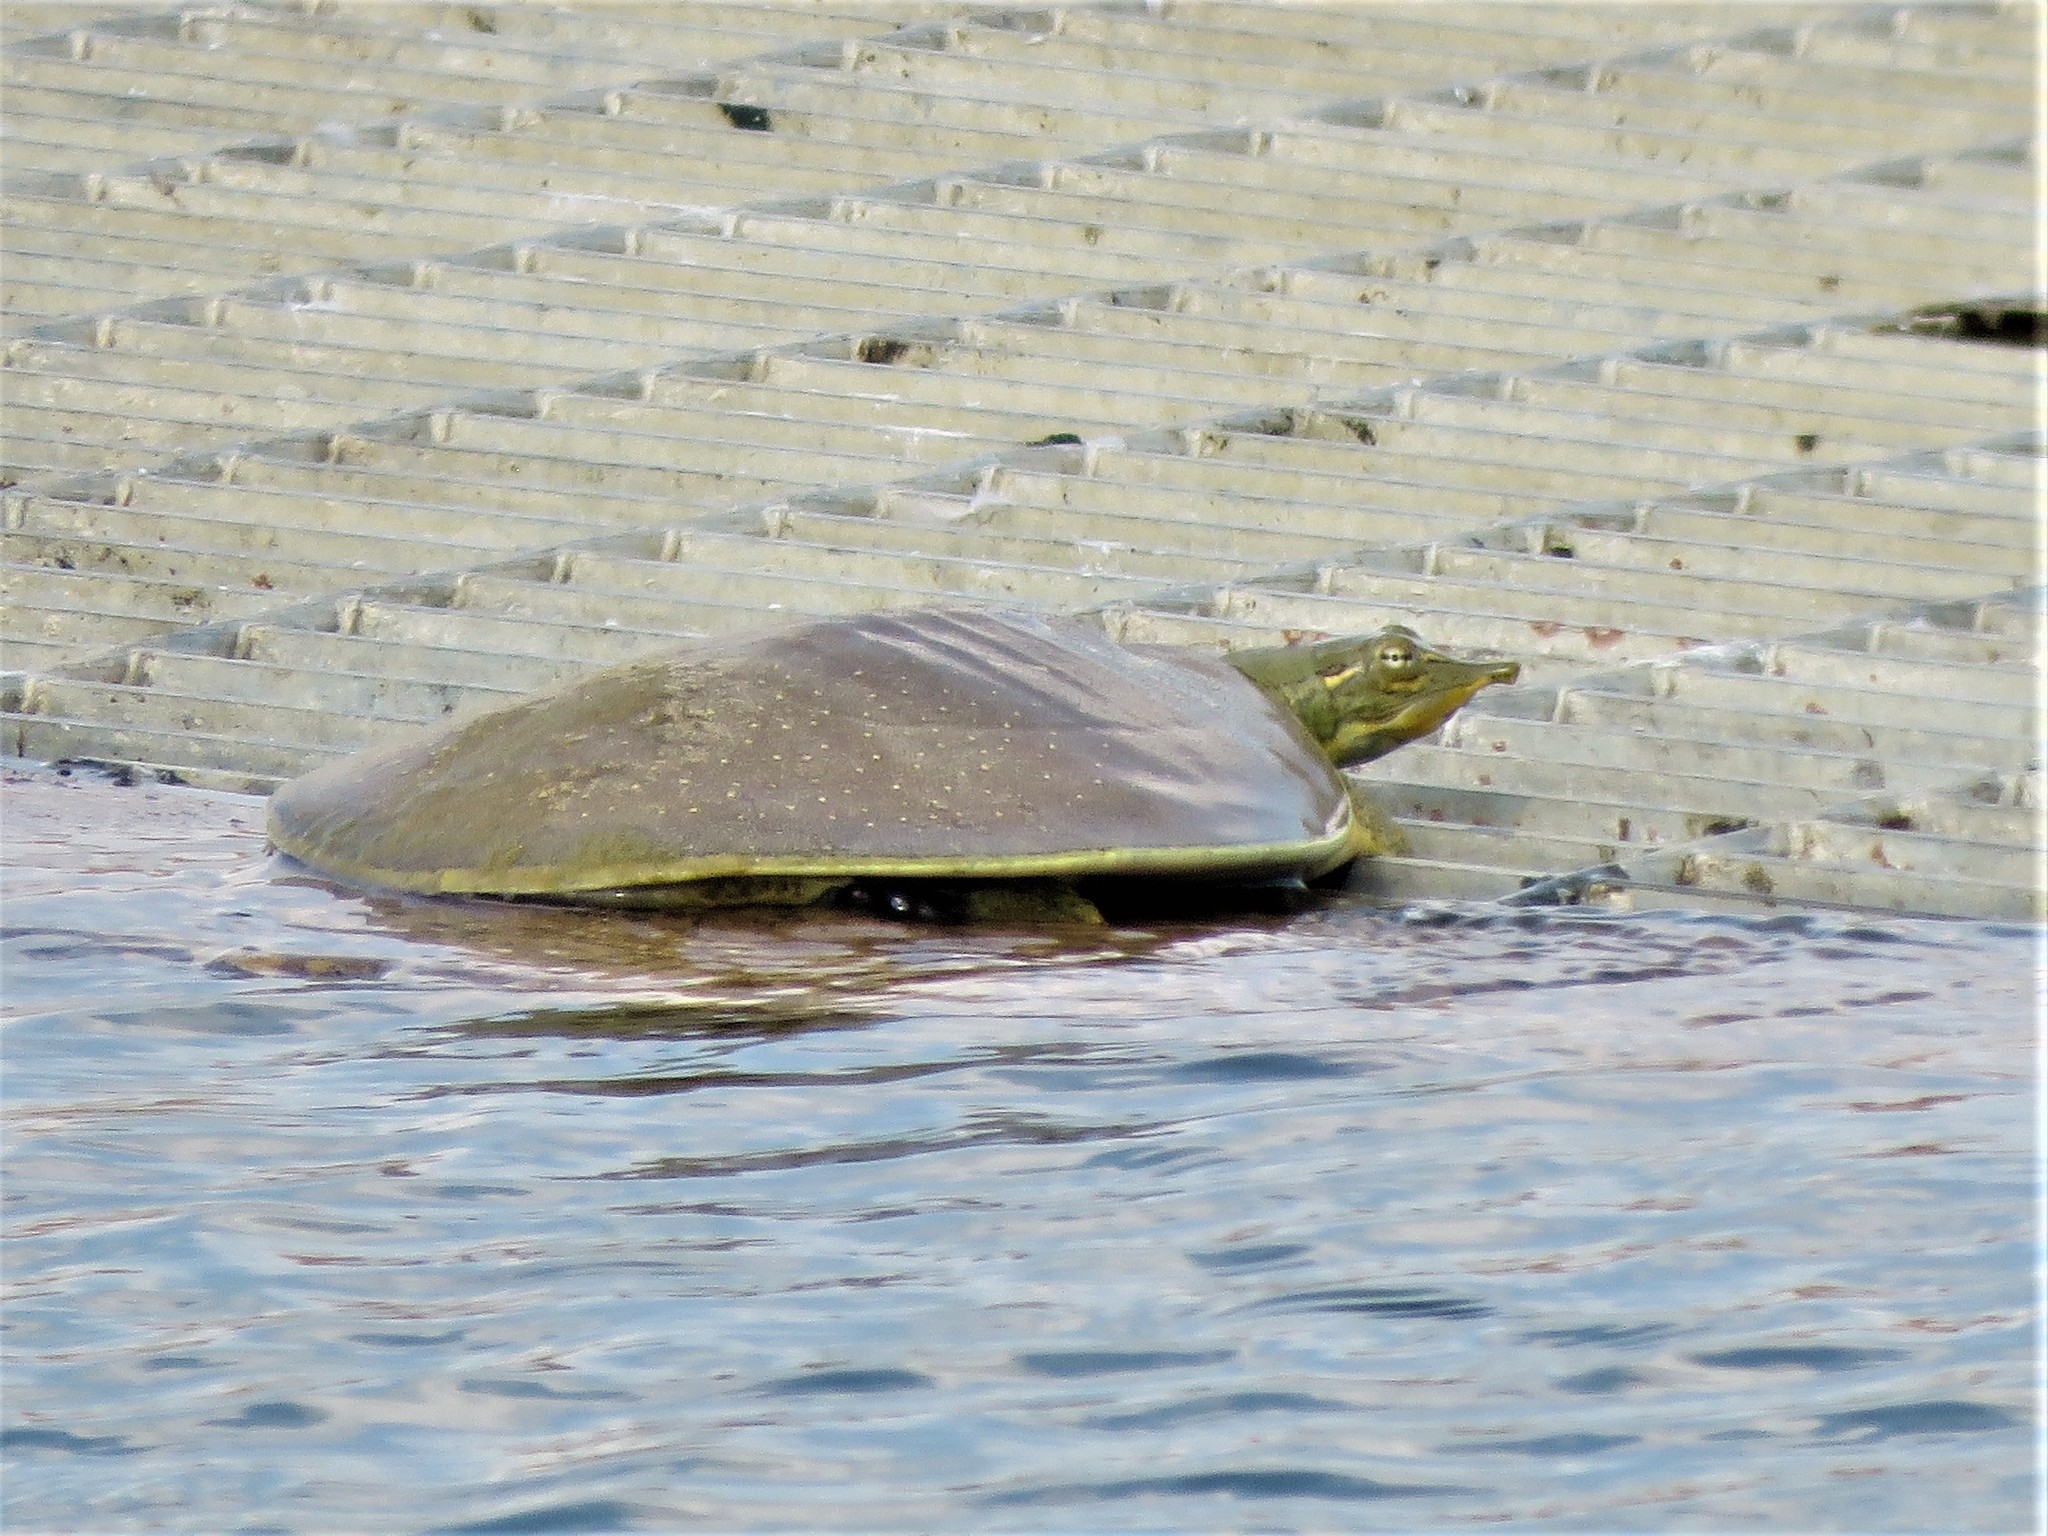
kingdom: Animalia
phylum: Chordata
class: Testudines
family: Trionychidae
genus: Apalone
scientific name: Apalone spinifera
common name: Spiny softshell turtle
